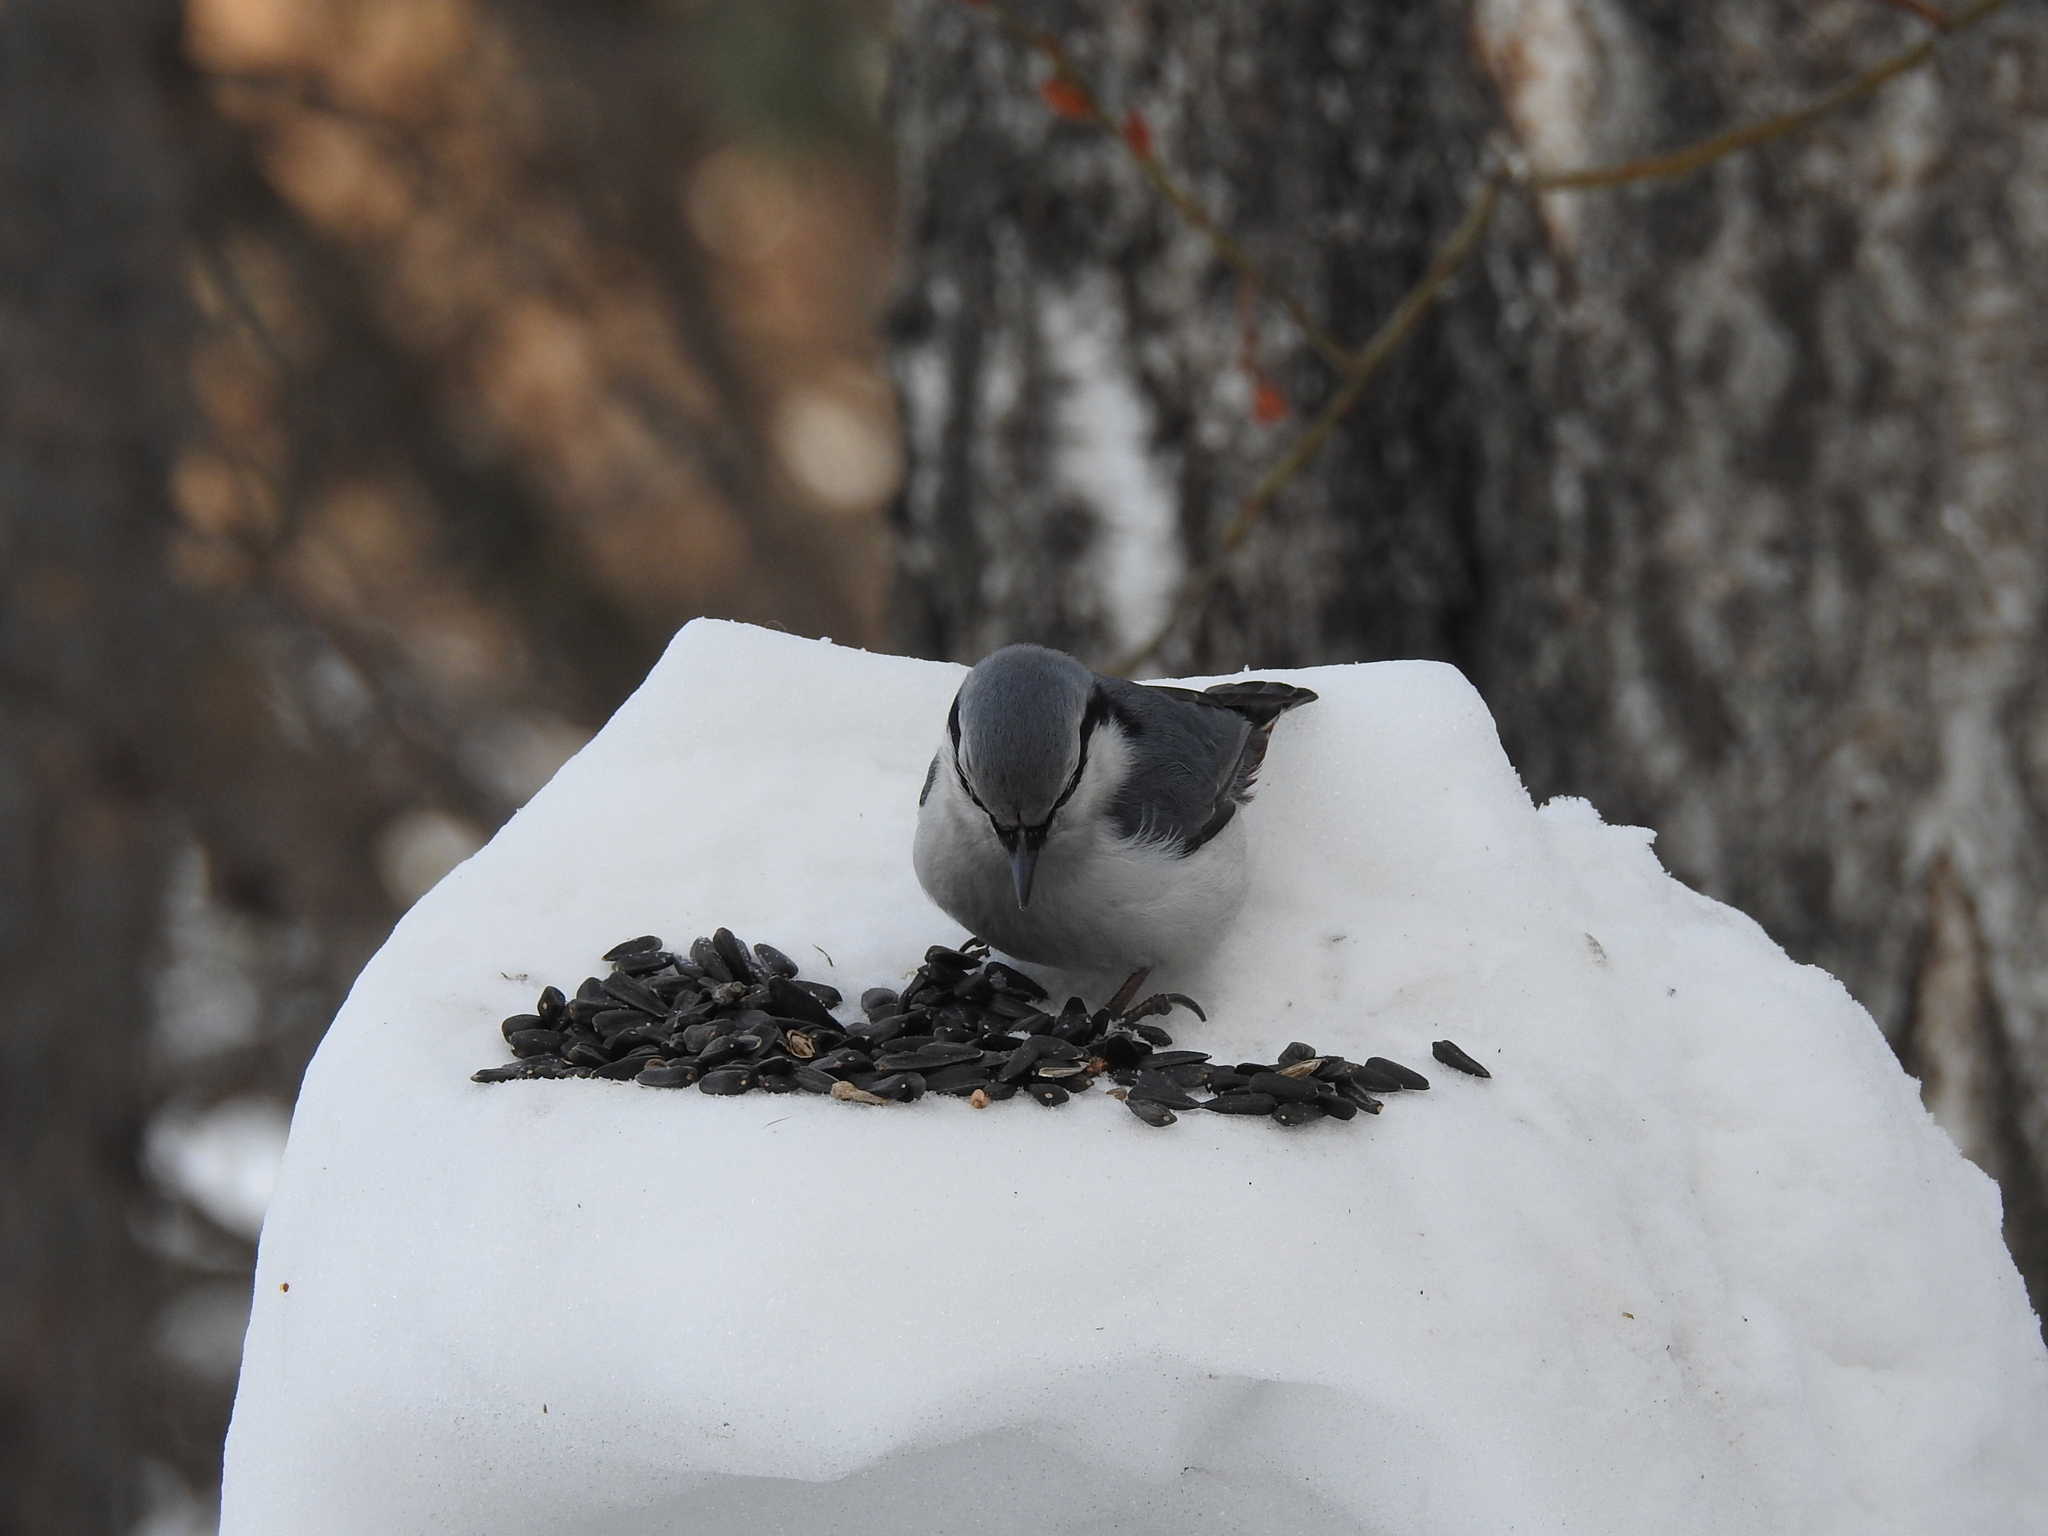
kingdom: Animalia
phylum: Chordata
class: Aves
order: Passeriformes
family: Sittidae
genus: Sitta
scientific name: Sitta europaea
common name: Eurasian nuthatch
